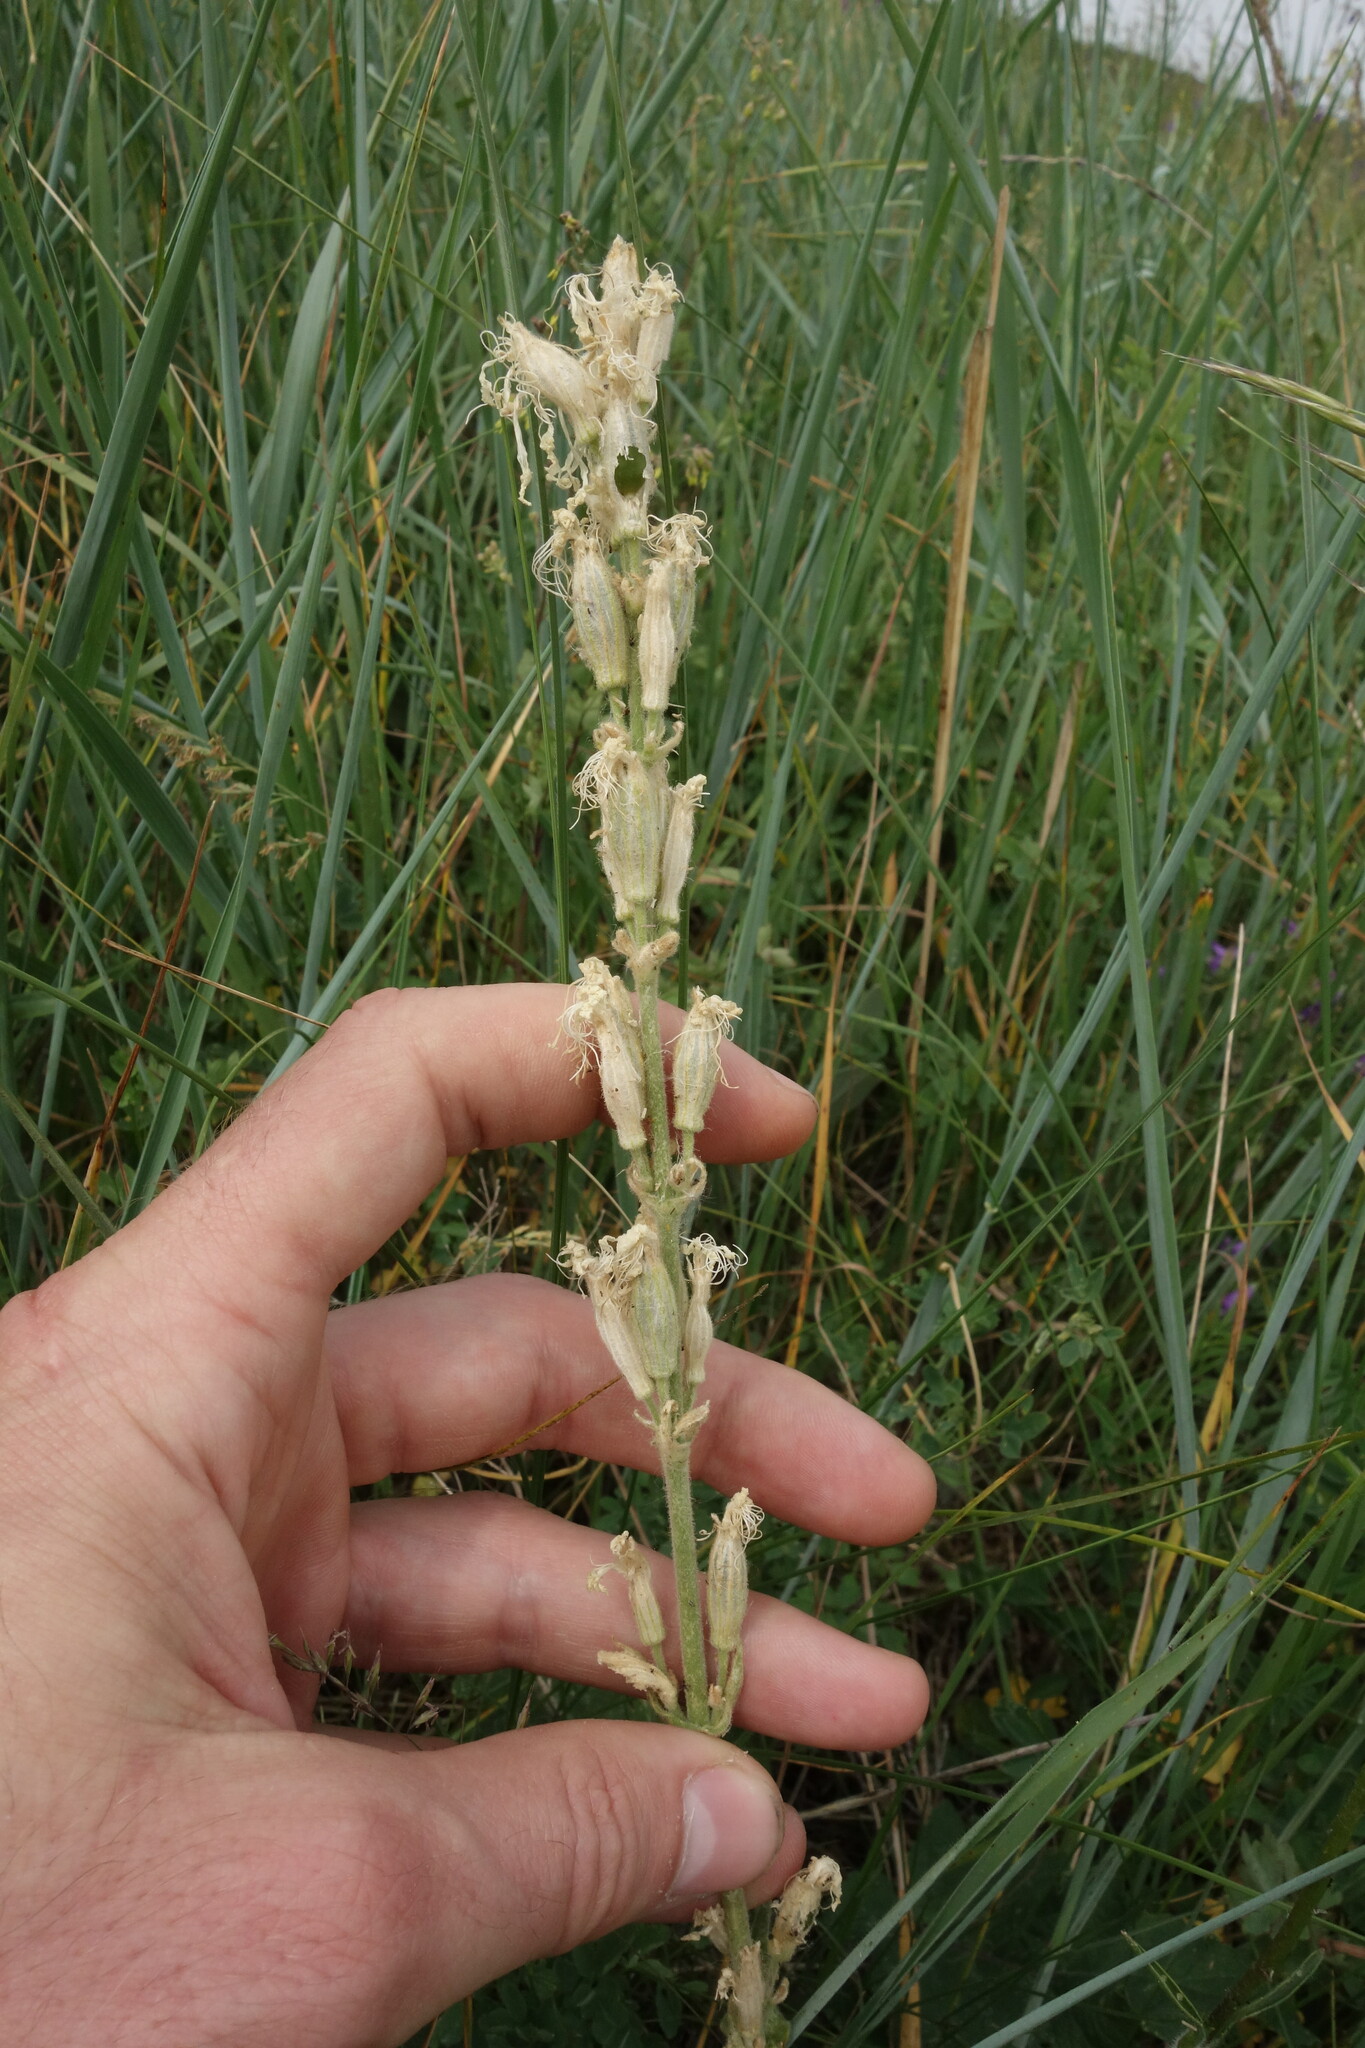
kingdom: Plantae
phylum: Tracheophyta
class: Magnoliopsida
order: Caryophyllales
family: Caryophyllaceae
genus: Silene
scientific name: Silene viscosa
